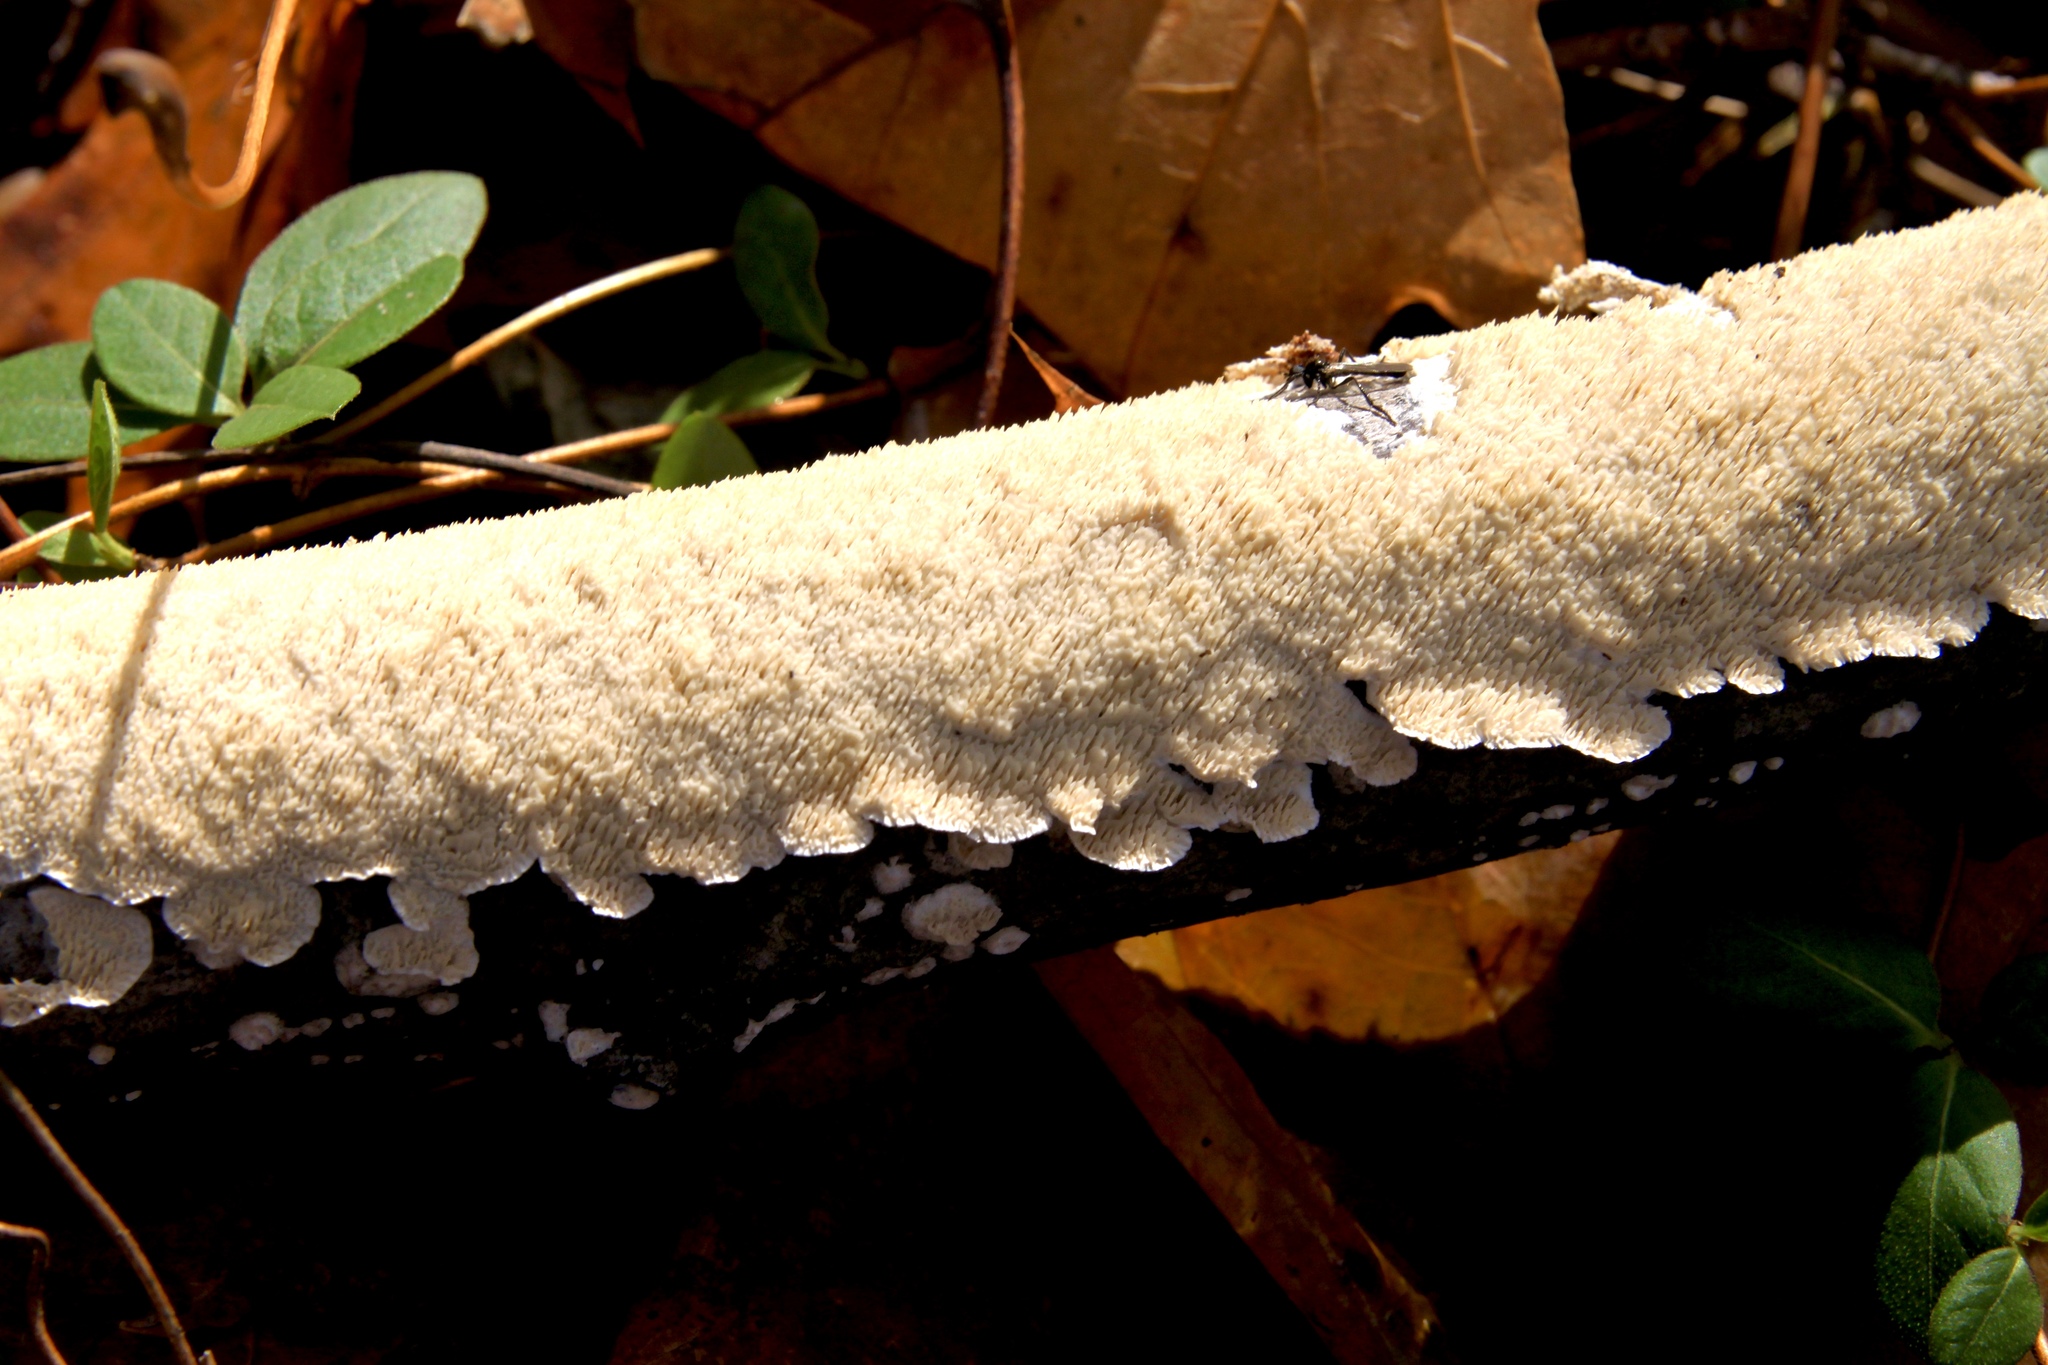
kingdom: Fungi
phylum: Basidiomycota
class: Agaricomycetes
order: Polyporales
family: Irpicaceae
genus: Irpex
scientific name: Irpex lacteus
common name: Milk-white toothed polypore
